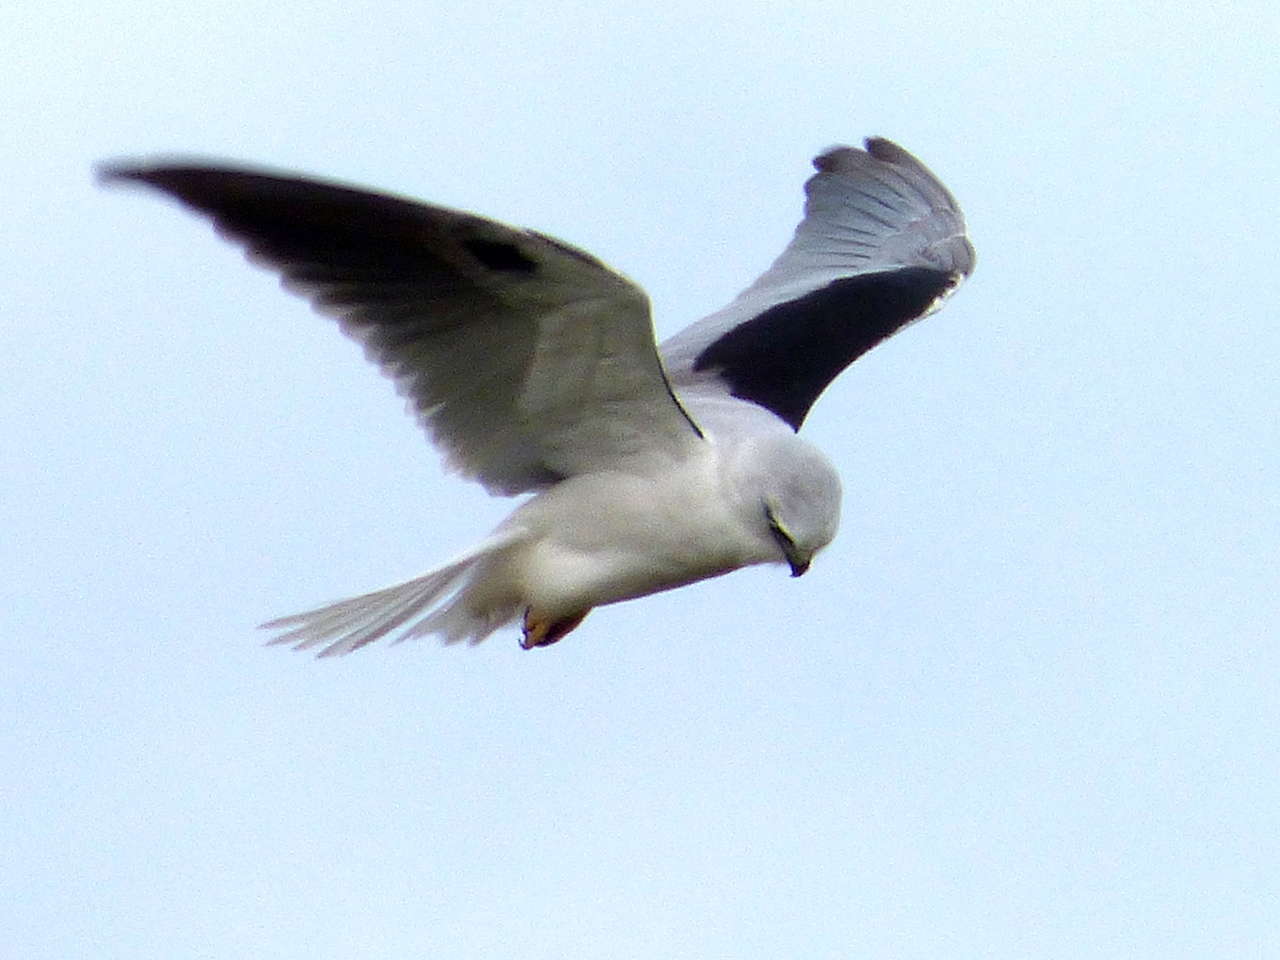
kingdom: Animalia
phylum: Chordata
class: Aves
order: Accipitriformes
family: Accipitridae
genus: Elanus
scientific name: Elanus axillaris
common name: Black-shouldered kite
